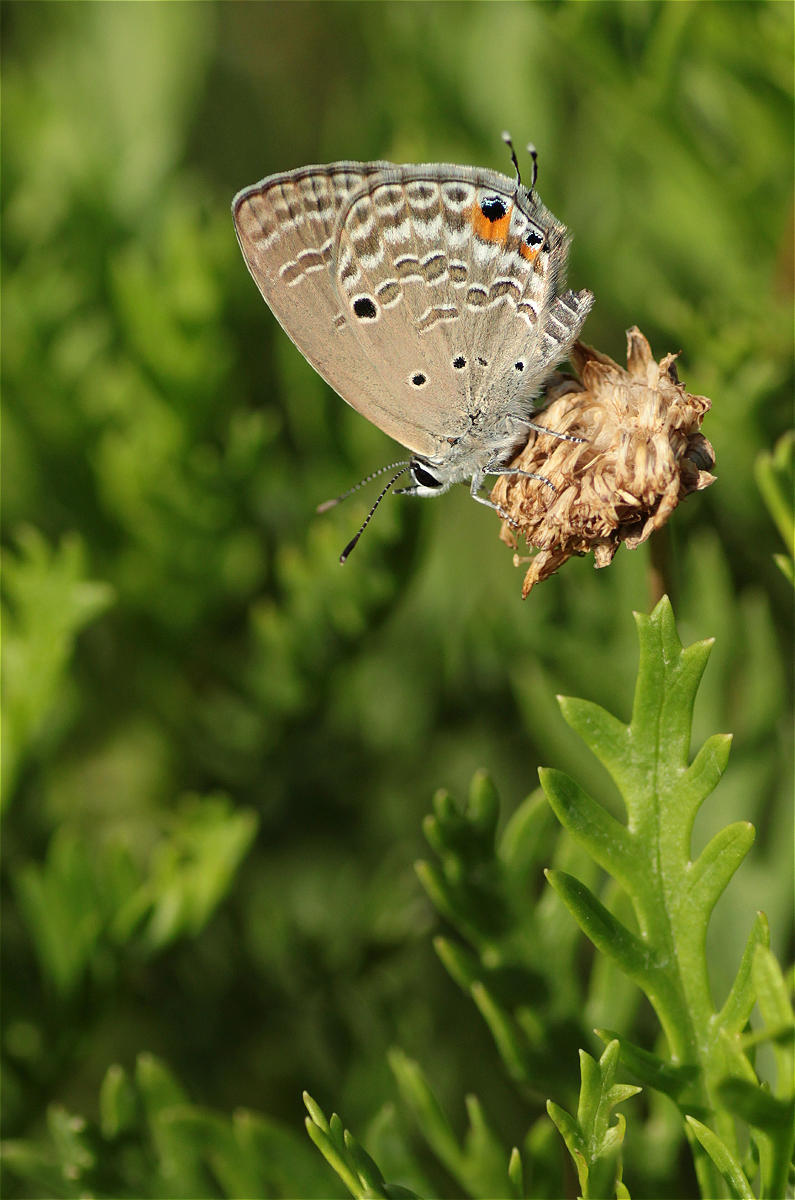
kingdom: Animalia
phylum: Arthropoda
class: Insecta
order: Lepidoptera
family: Lycaenidae
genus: Luthrodes
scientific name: Luthrodes pandava
